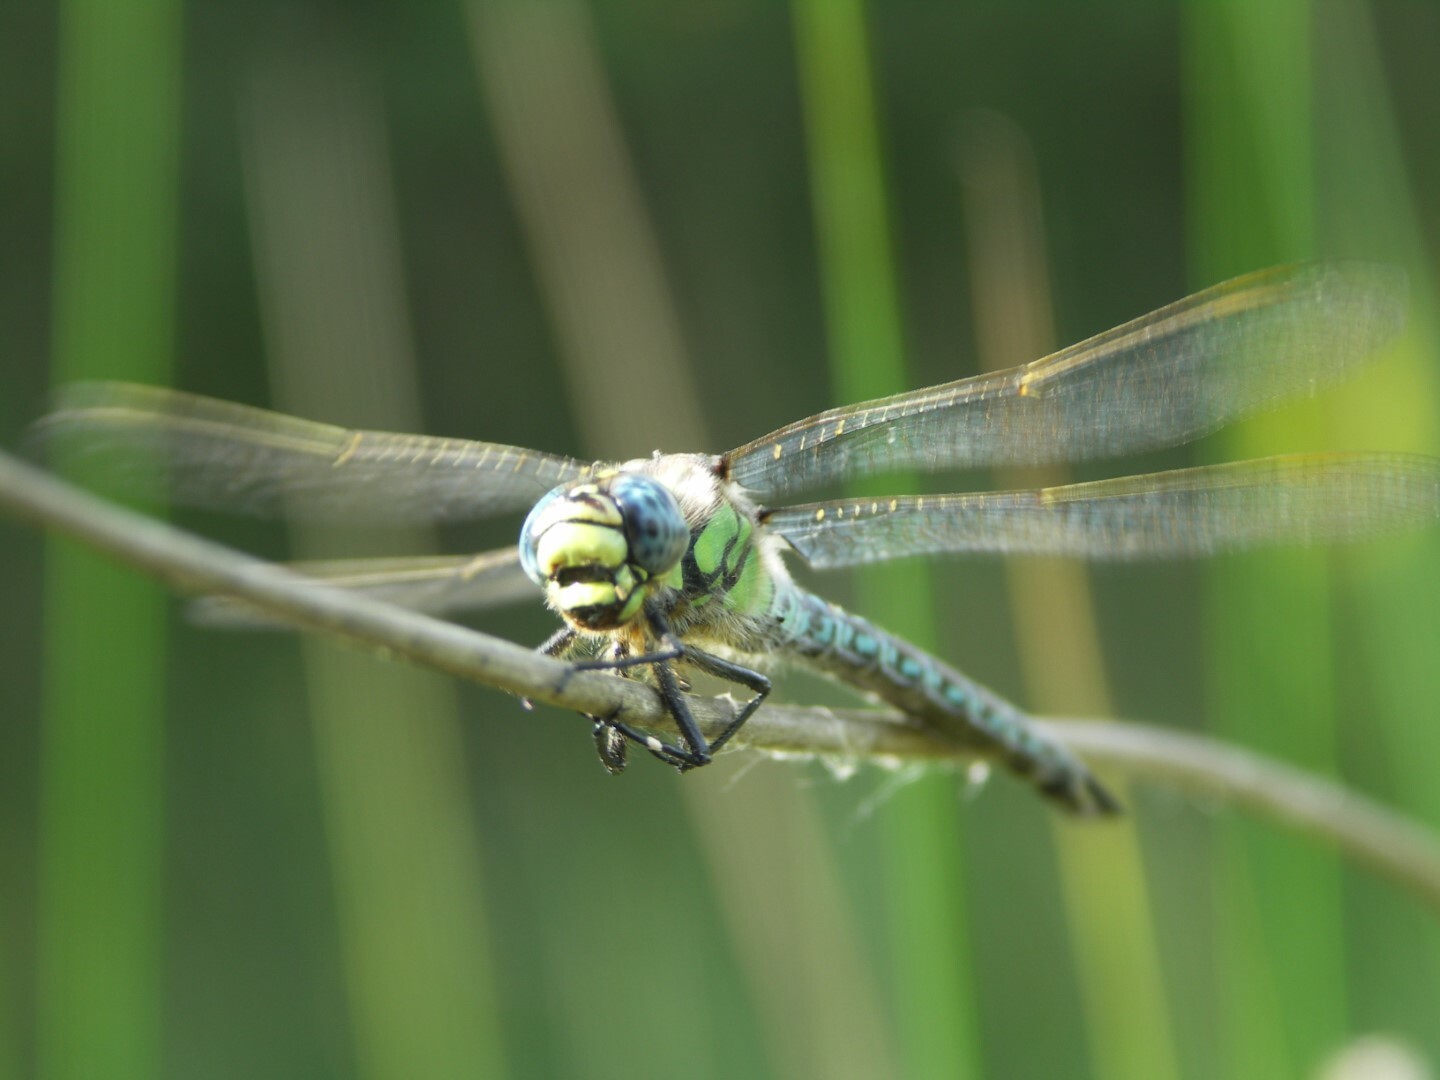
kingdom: Animalia
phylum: Arthropoda
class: Insecta
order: Odonata
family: Aeshnidae
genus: Brachytron
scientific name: Brachytron pratense
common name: Hairy hawker
